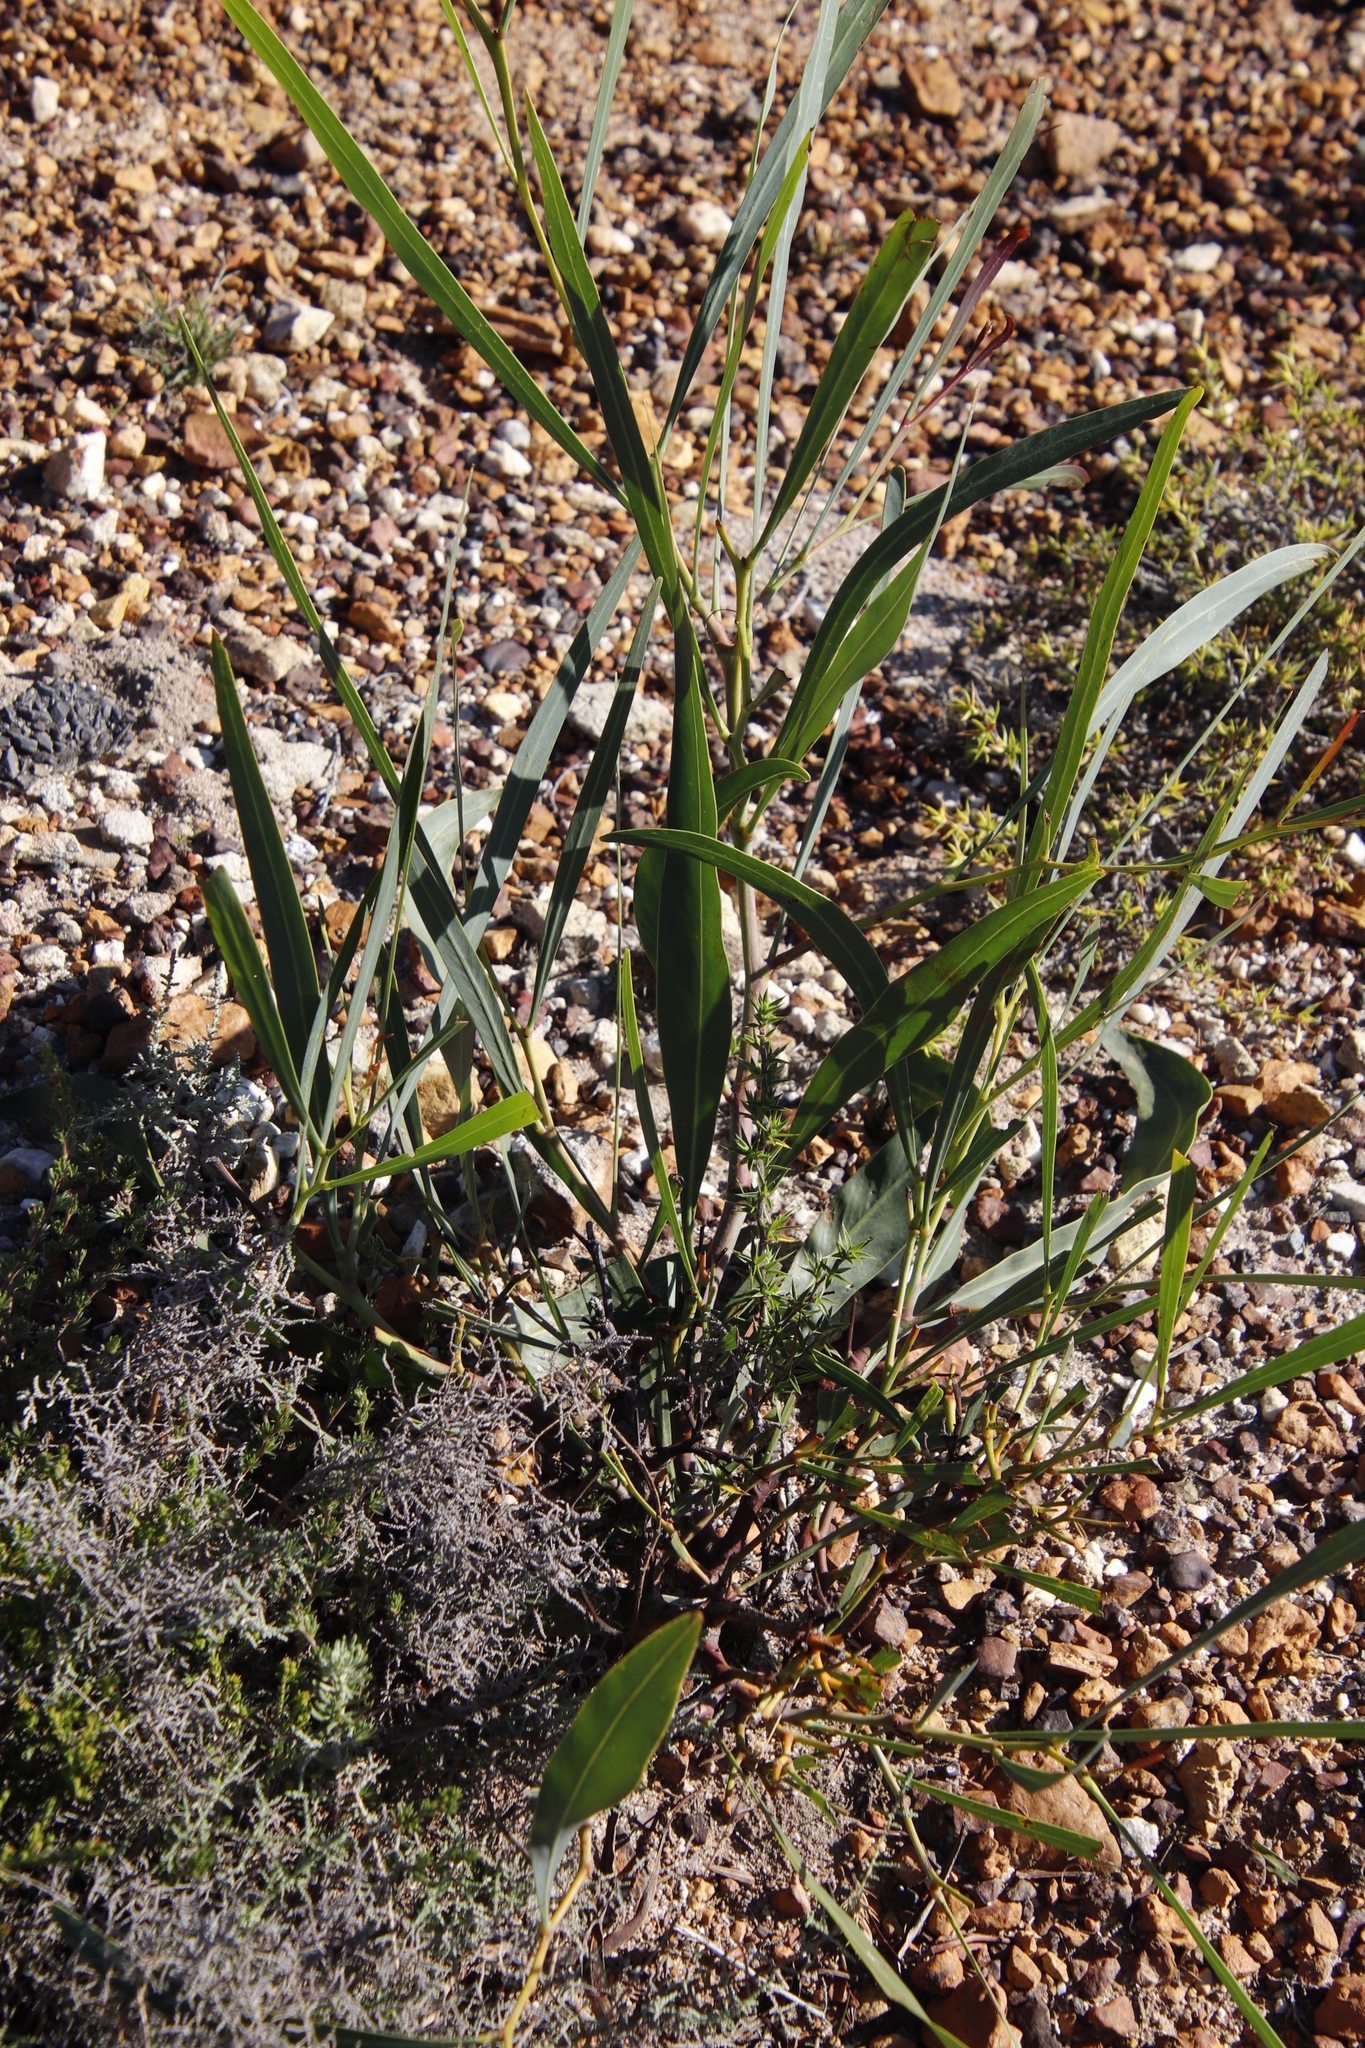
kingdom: Plantae
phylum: Tracheophyta
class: Magnoliopsida
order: Fabales
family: Fabaceae
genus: Acacia
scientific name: Acacia saligna
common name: Orange wattle
